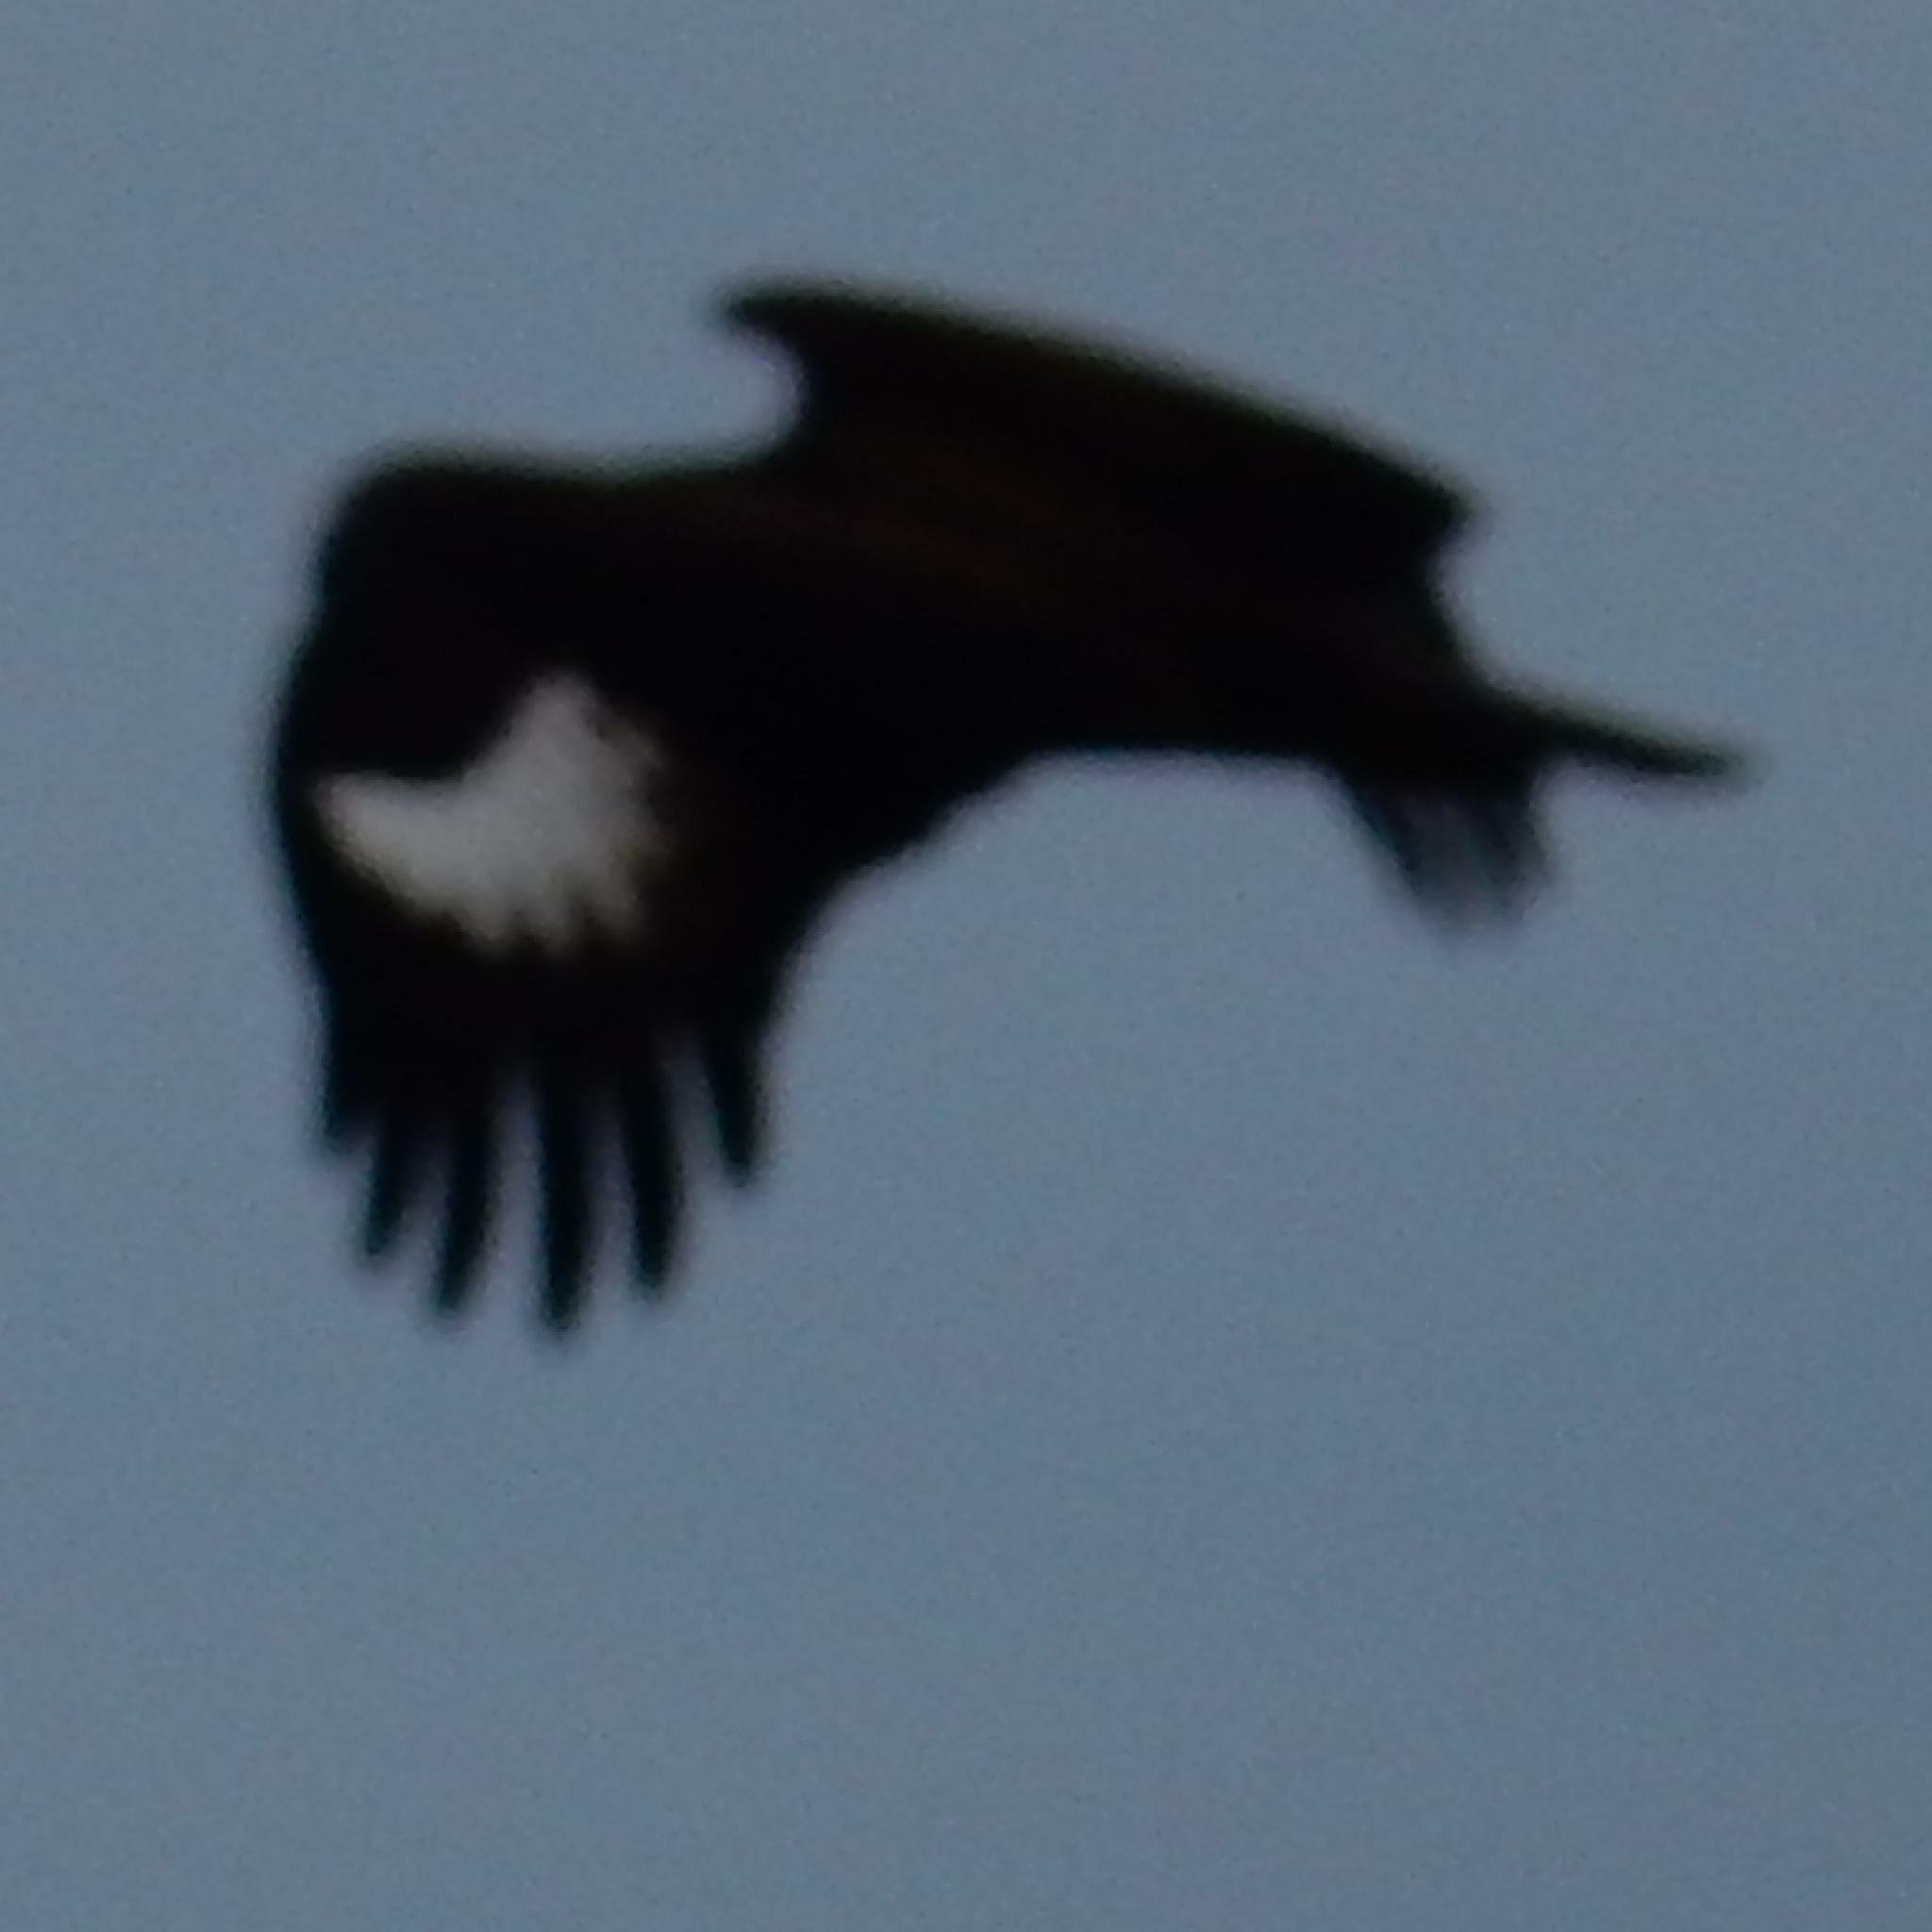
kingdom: Animalia
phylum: Chordata
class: Aves
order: Accipitriformes
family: Accipitridae
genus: Lophaetus
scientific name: Lophaetus occipitalis
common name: Long-crested eagle
